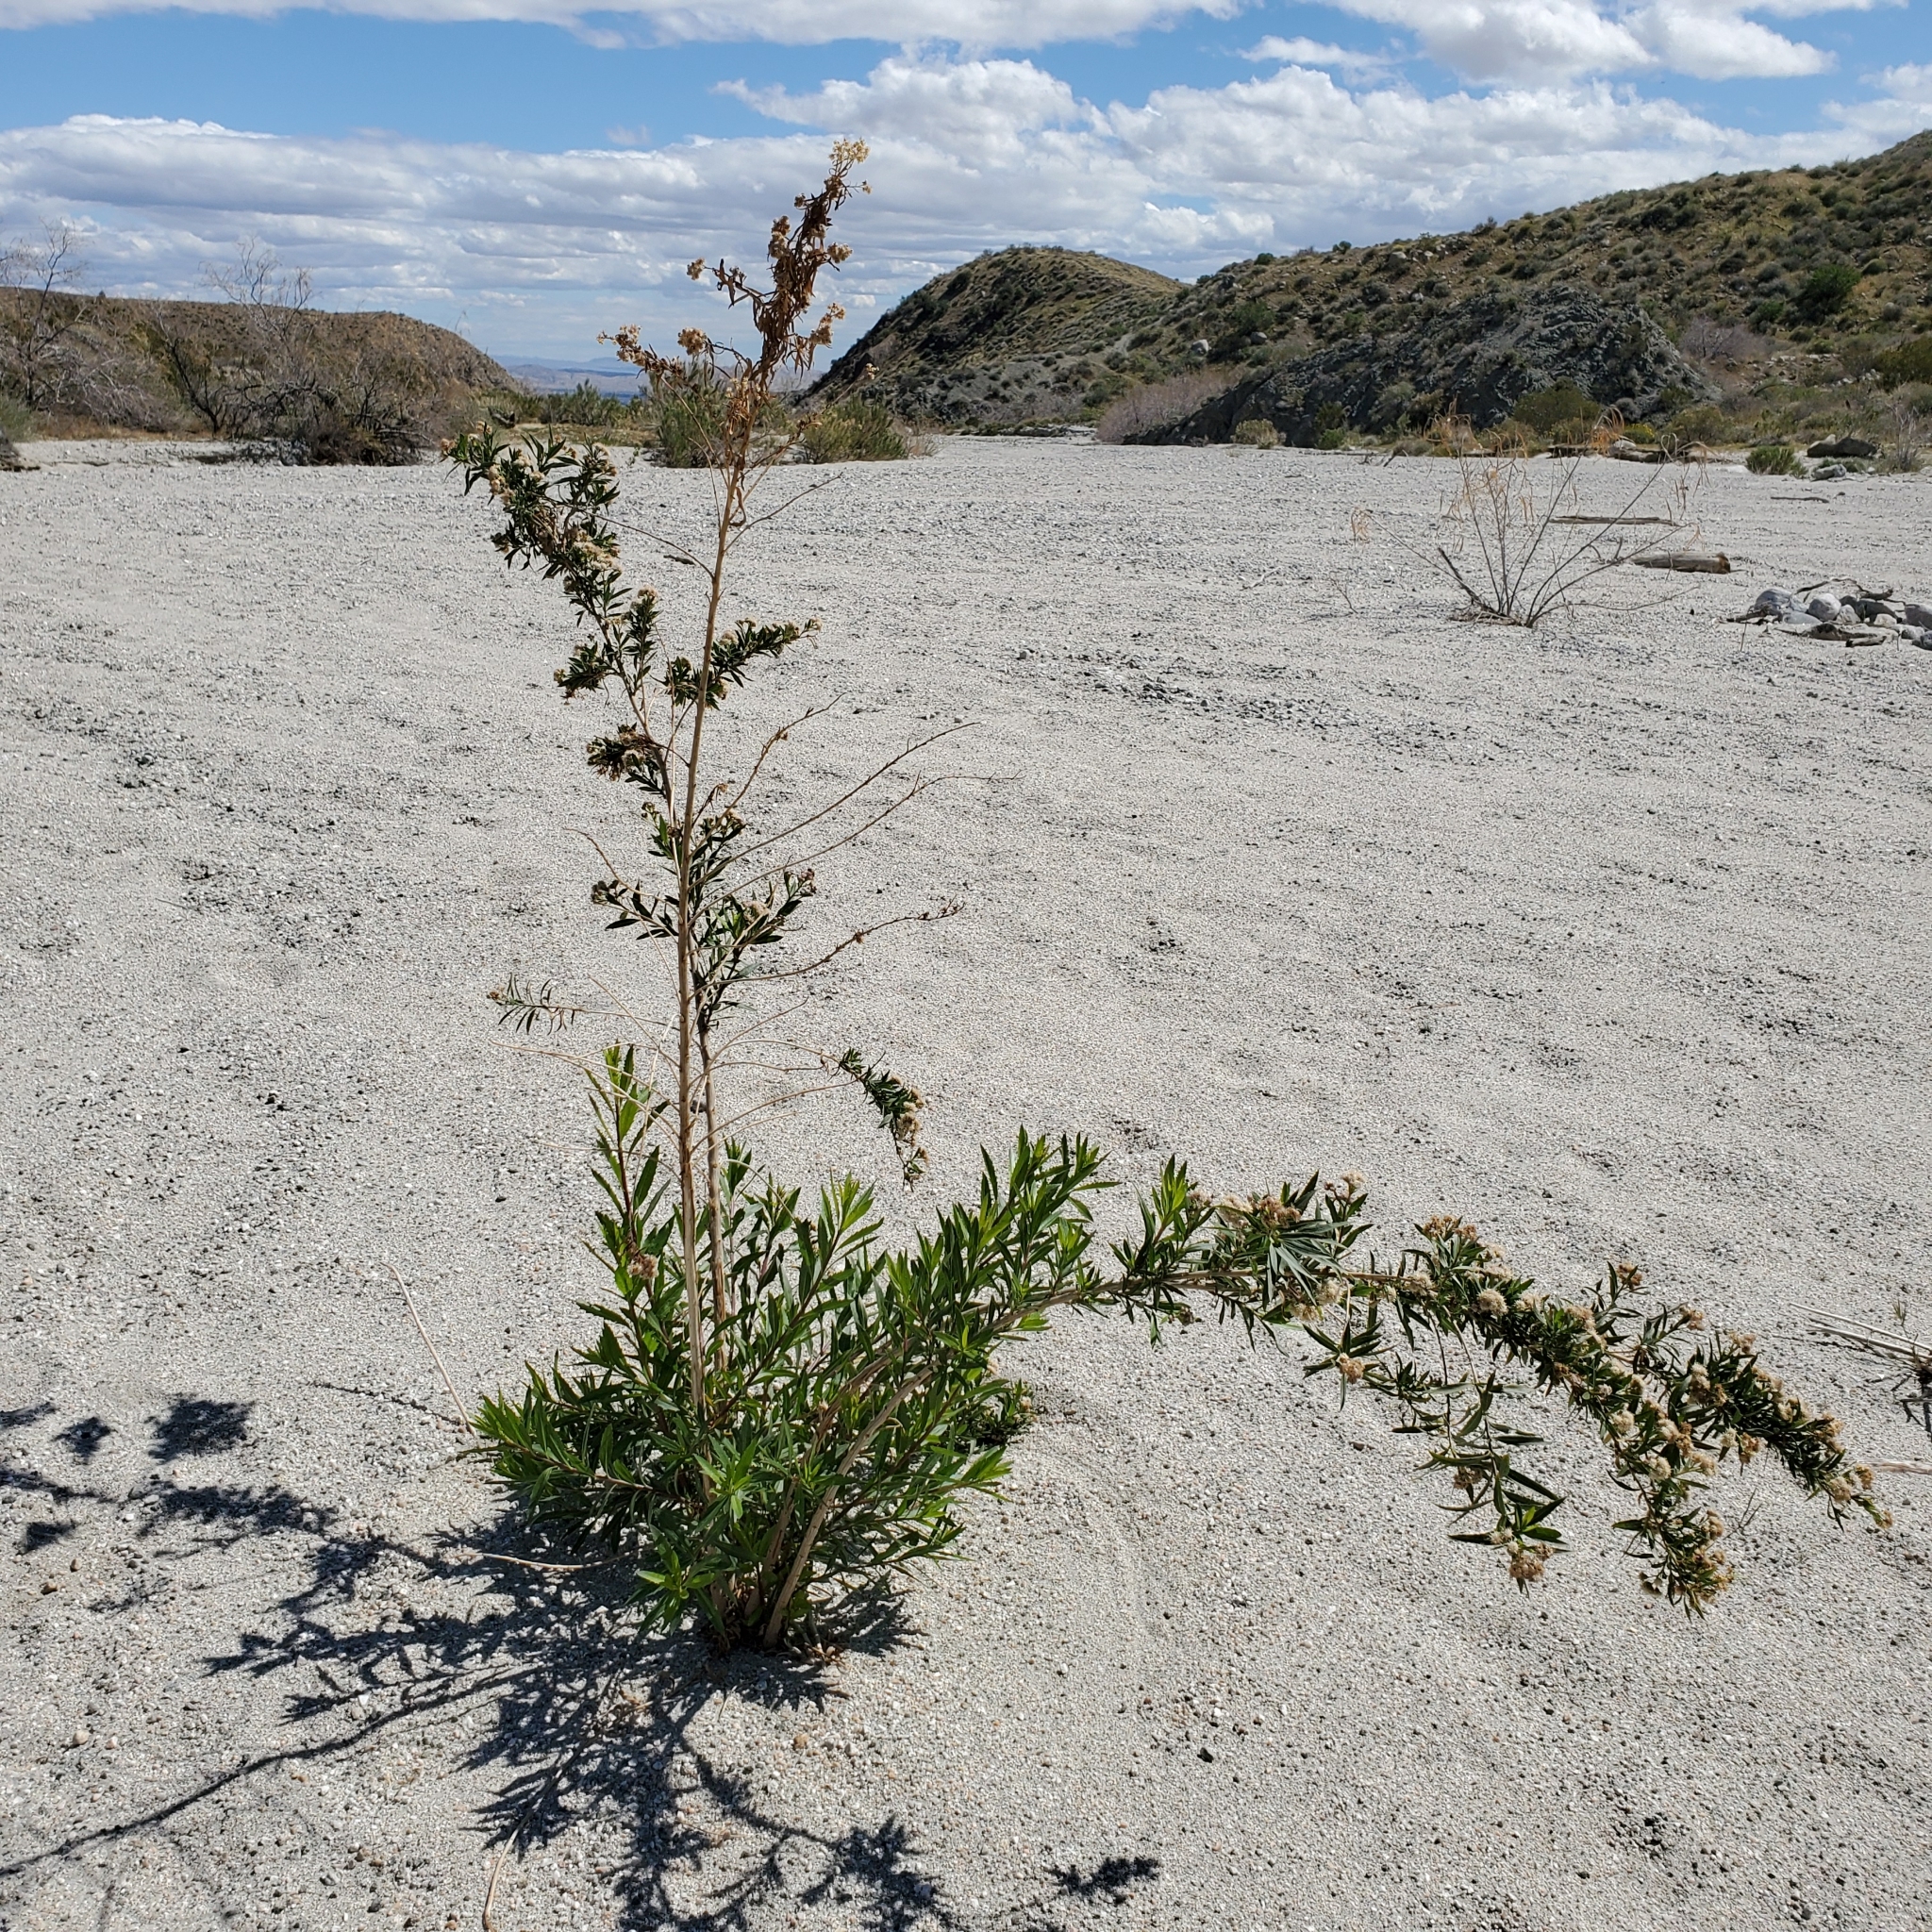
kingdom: Plantae
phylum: Tracheophyta
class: Magnoliopsida
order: Asterales
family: Asteraceae
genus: Baccharis
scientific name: Baccharis salicifolia
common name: Sticky baccharis
